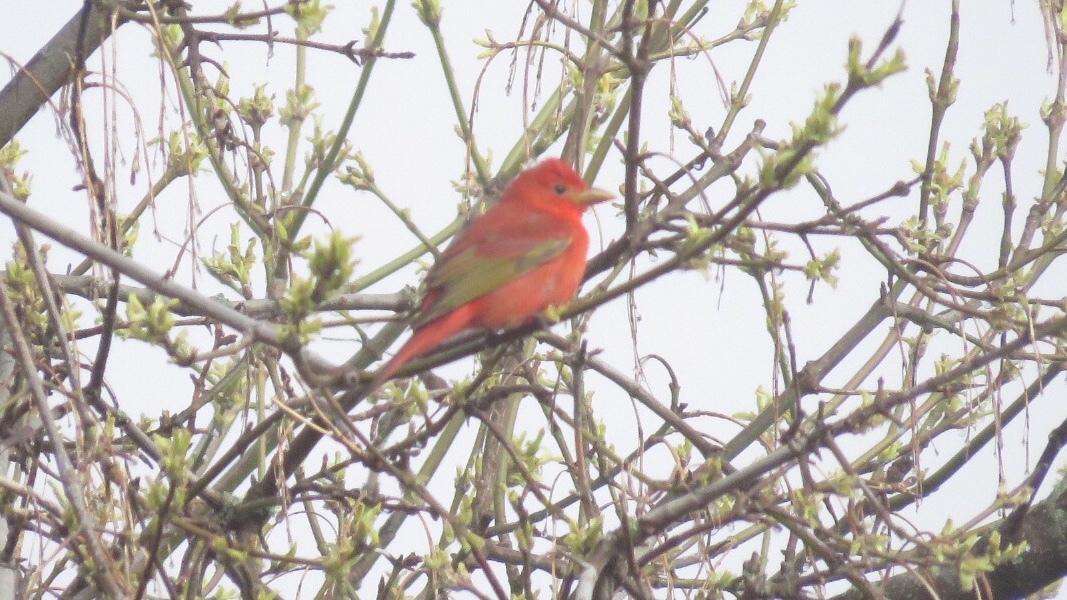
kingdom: Animalia
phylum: Chordata
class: Aves
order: Passeriformes
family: Cardinalidae
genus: Piranga
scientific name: Piranga rubra
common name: Summer tanager
